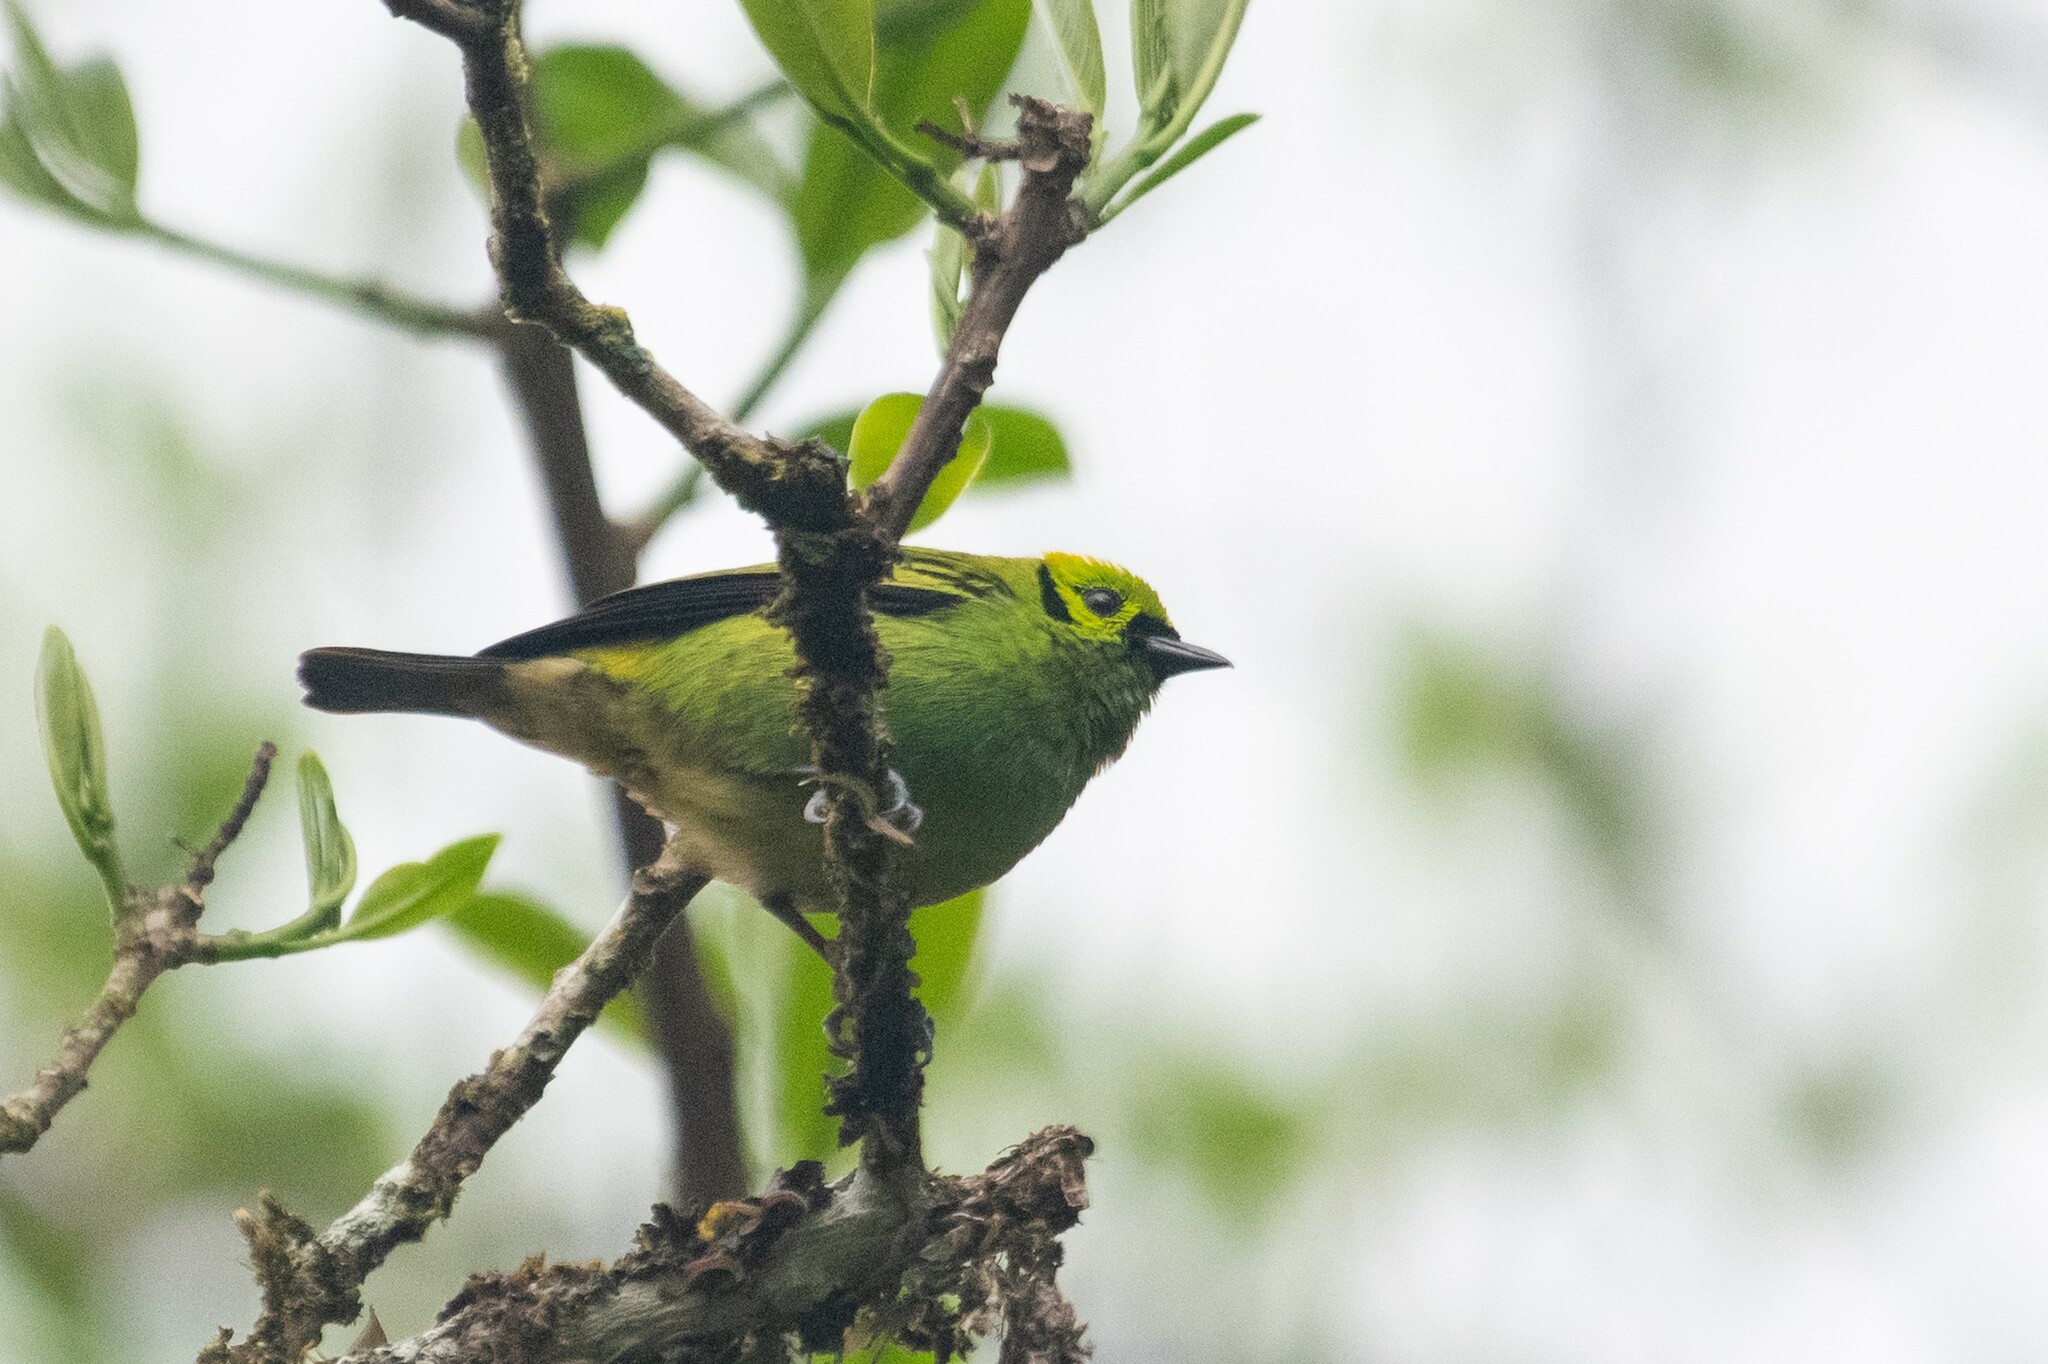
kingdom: Animalia
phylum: Chordata
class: Aves
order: Passeriformes
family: Thraupidae
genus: Tangara
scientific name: Tangara florida
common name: Emerald tanager
